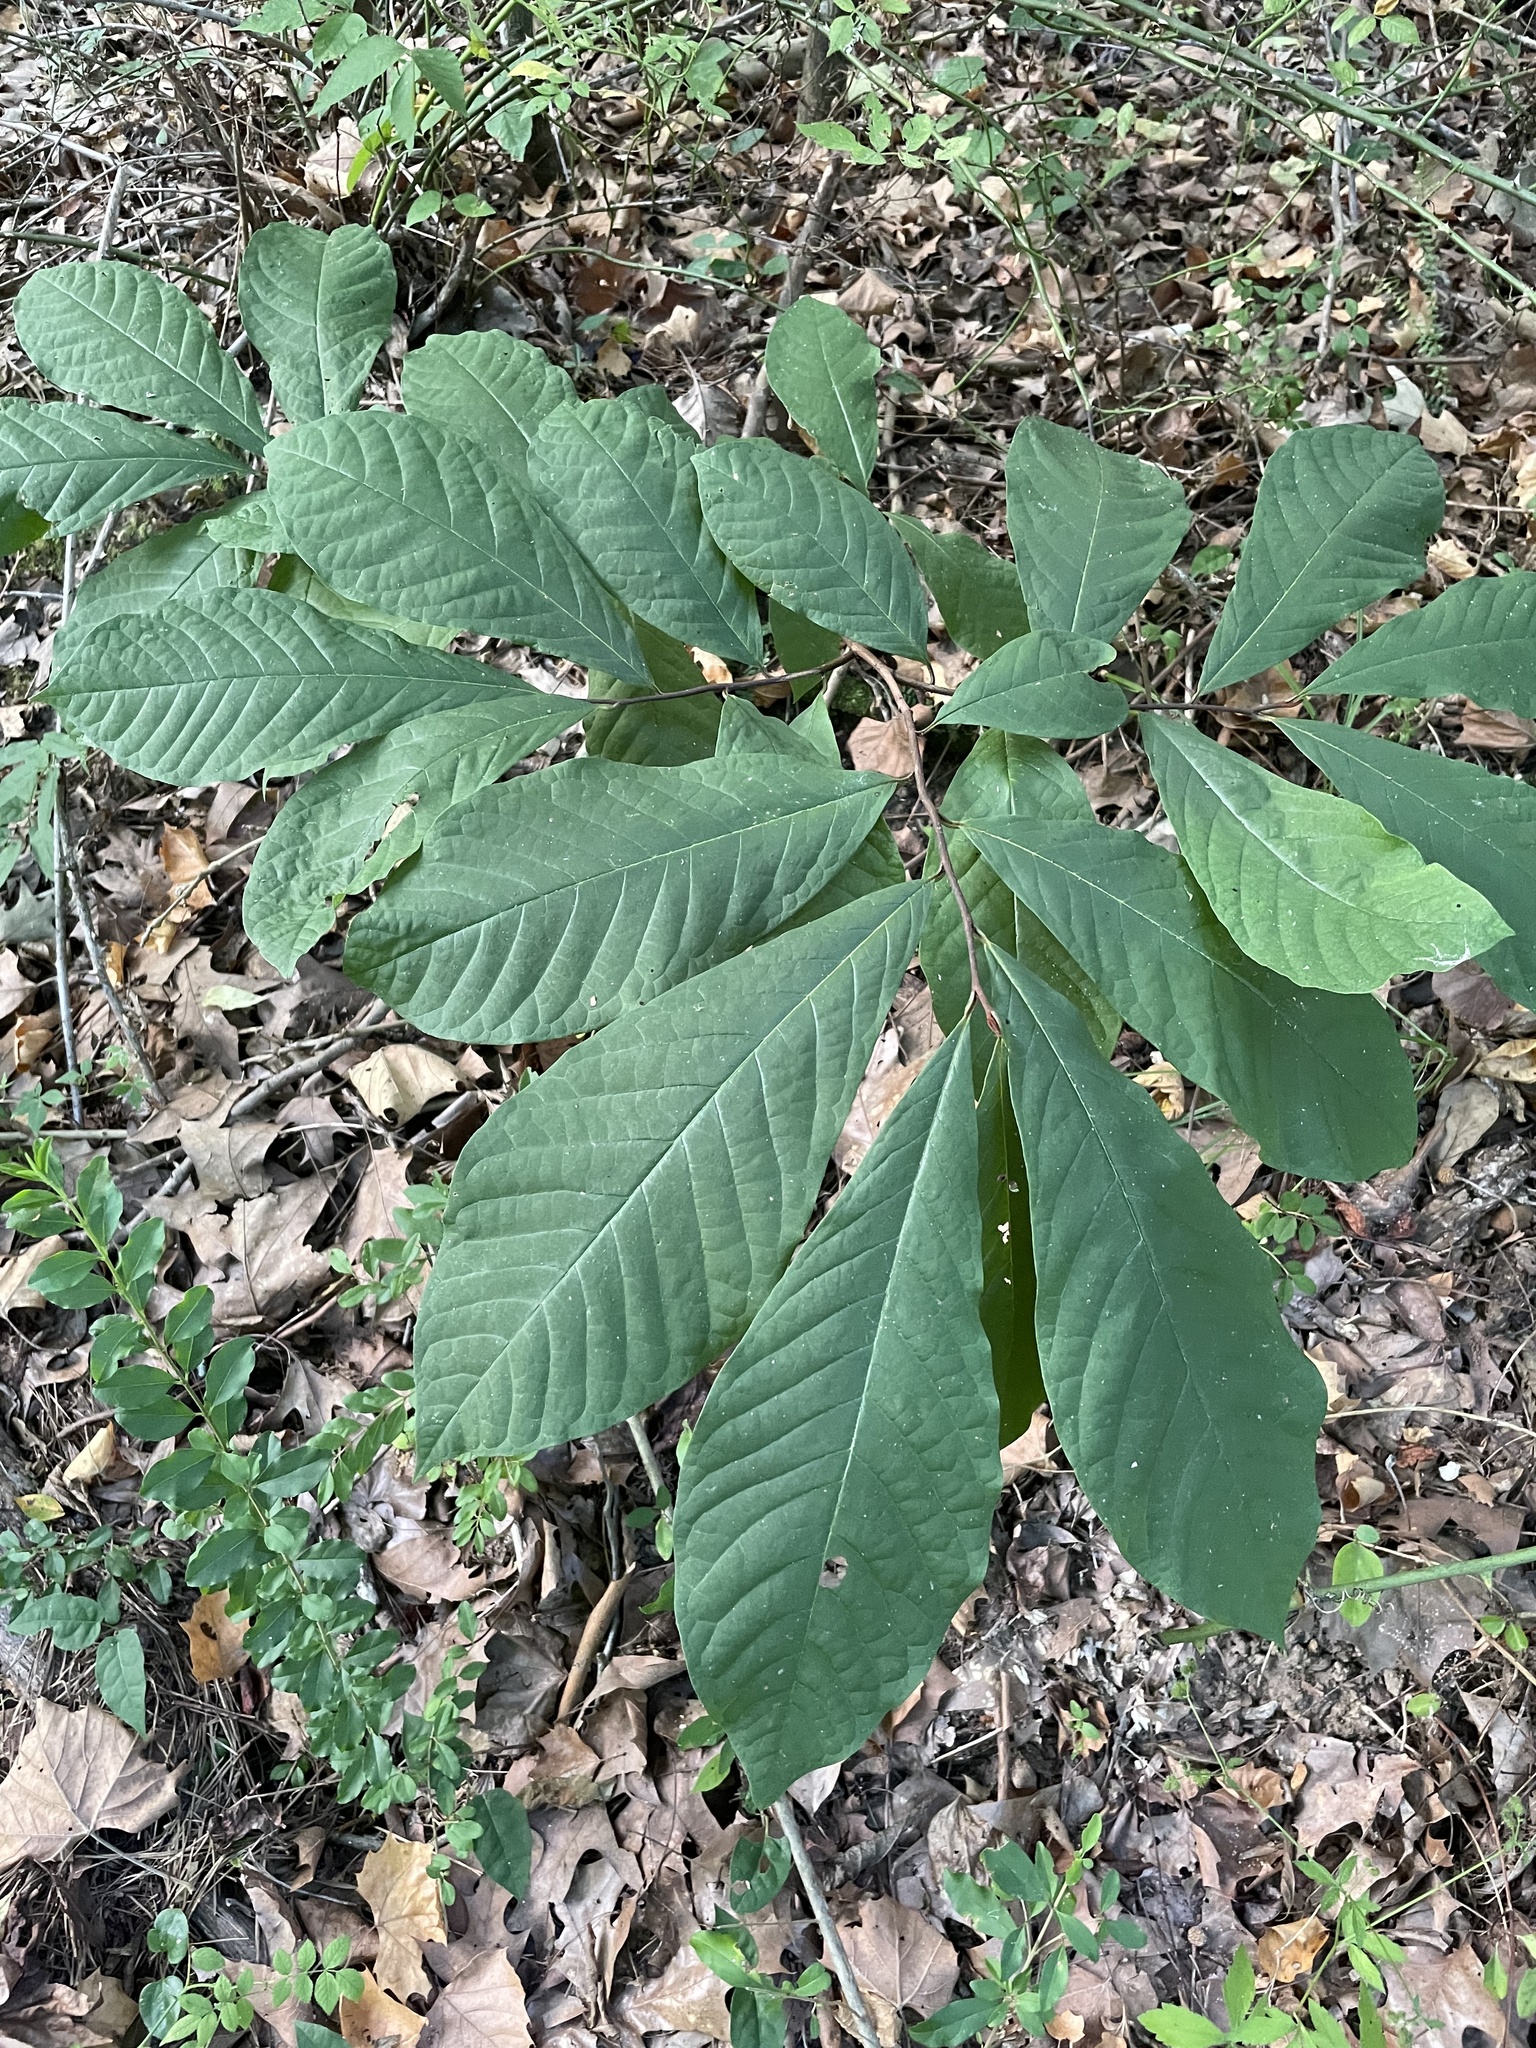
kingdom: Plantae
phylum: Tracheophyta
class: Magnoliopsida
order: Magnoliales
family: Annonaceae
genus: Asimina
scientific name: Asimina triloba
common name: Dog-banana
